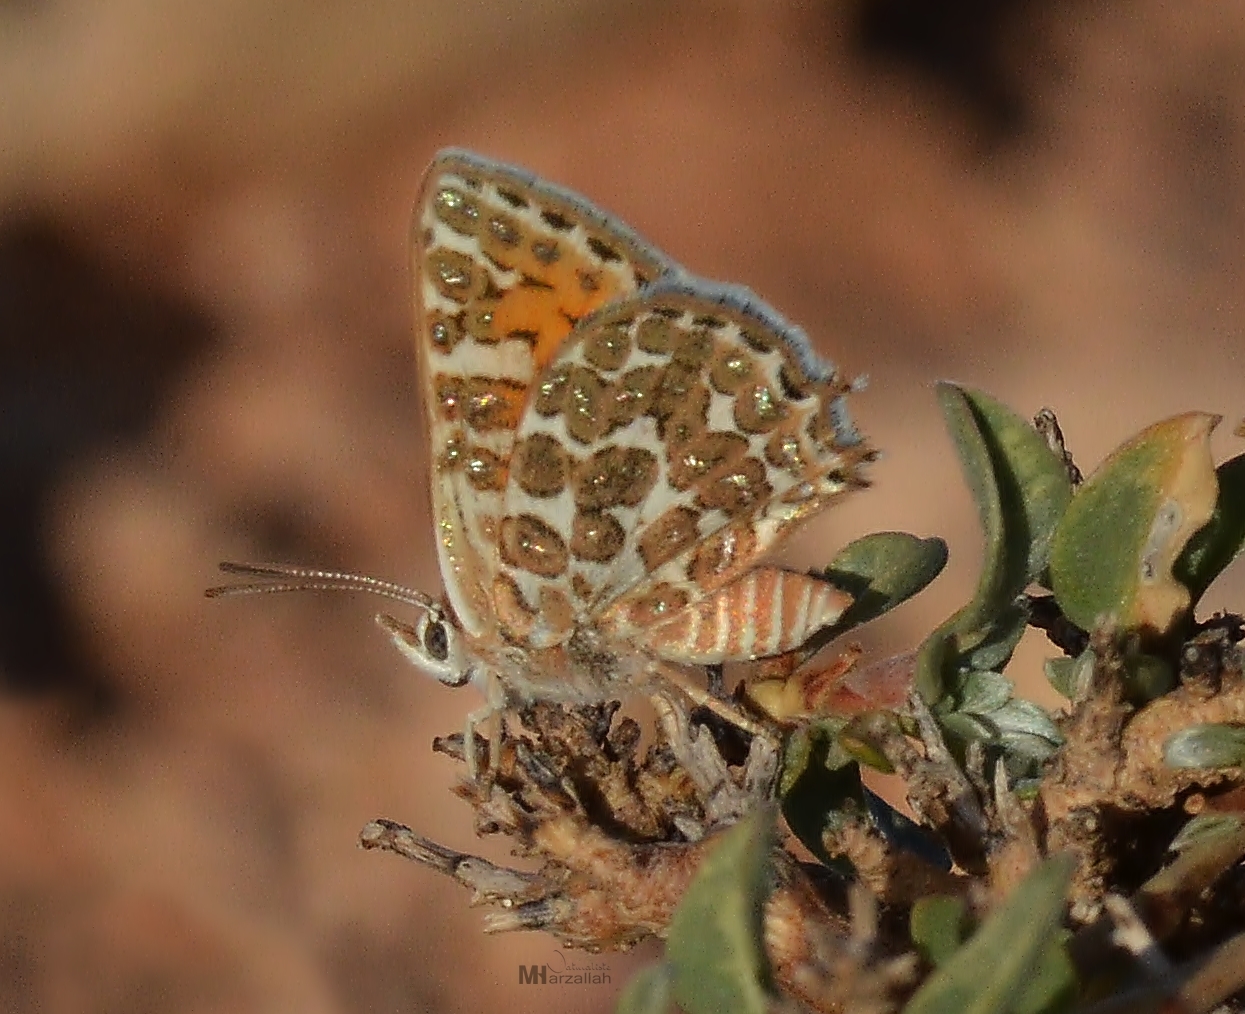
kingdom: Animalia
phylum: Arthropoda
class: Insecta
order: Lepidoptera
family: Lycaenidae
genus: Cigaritis
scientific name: Cigaritis zohra
